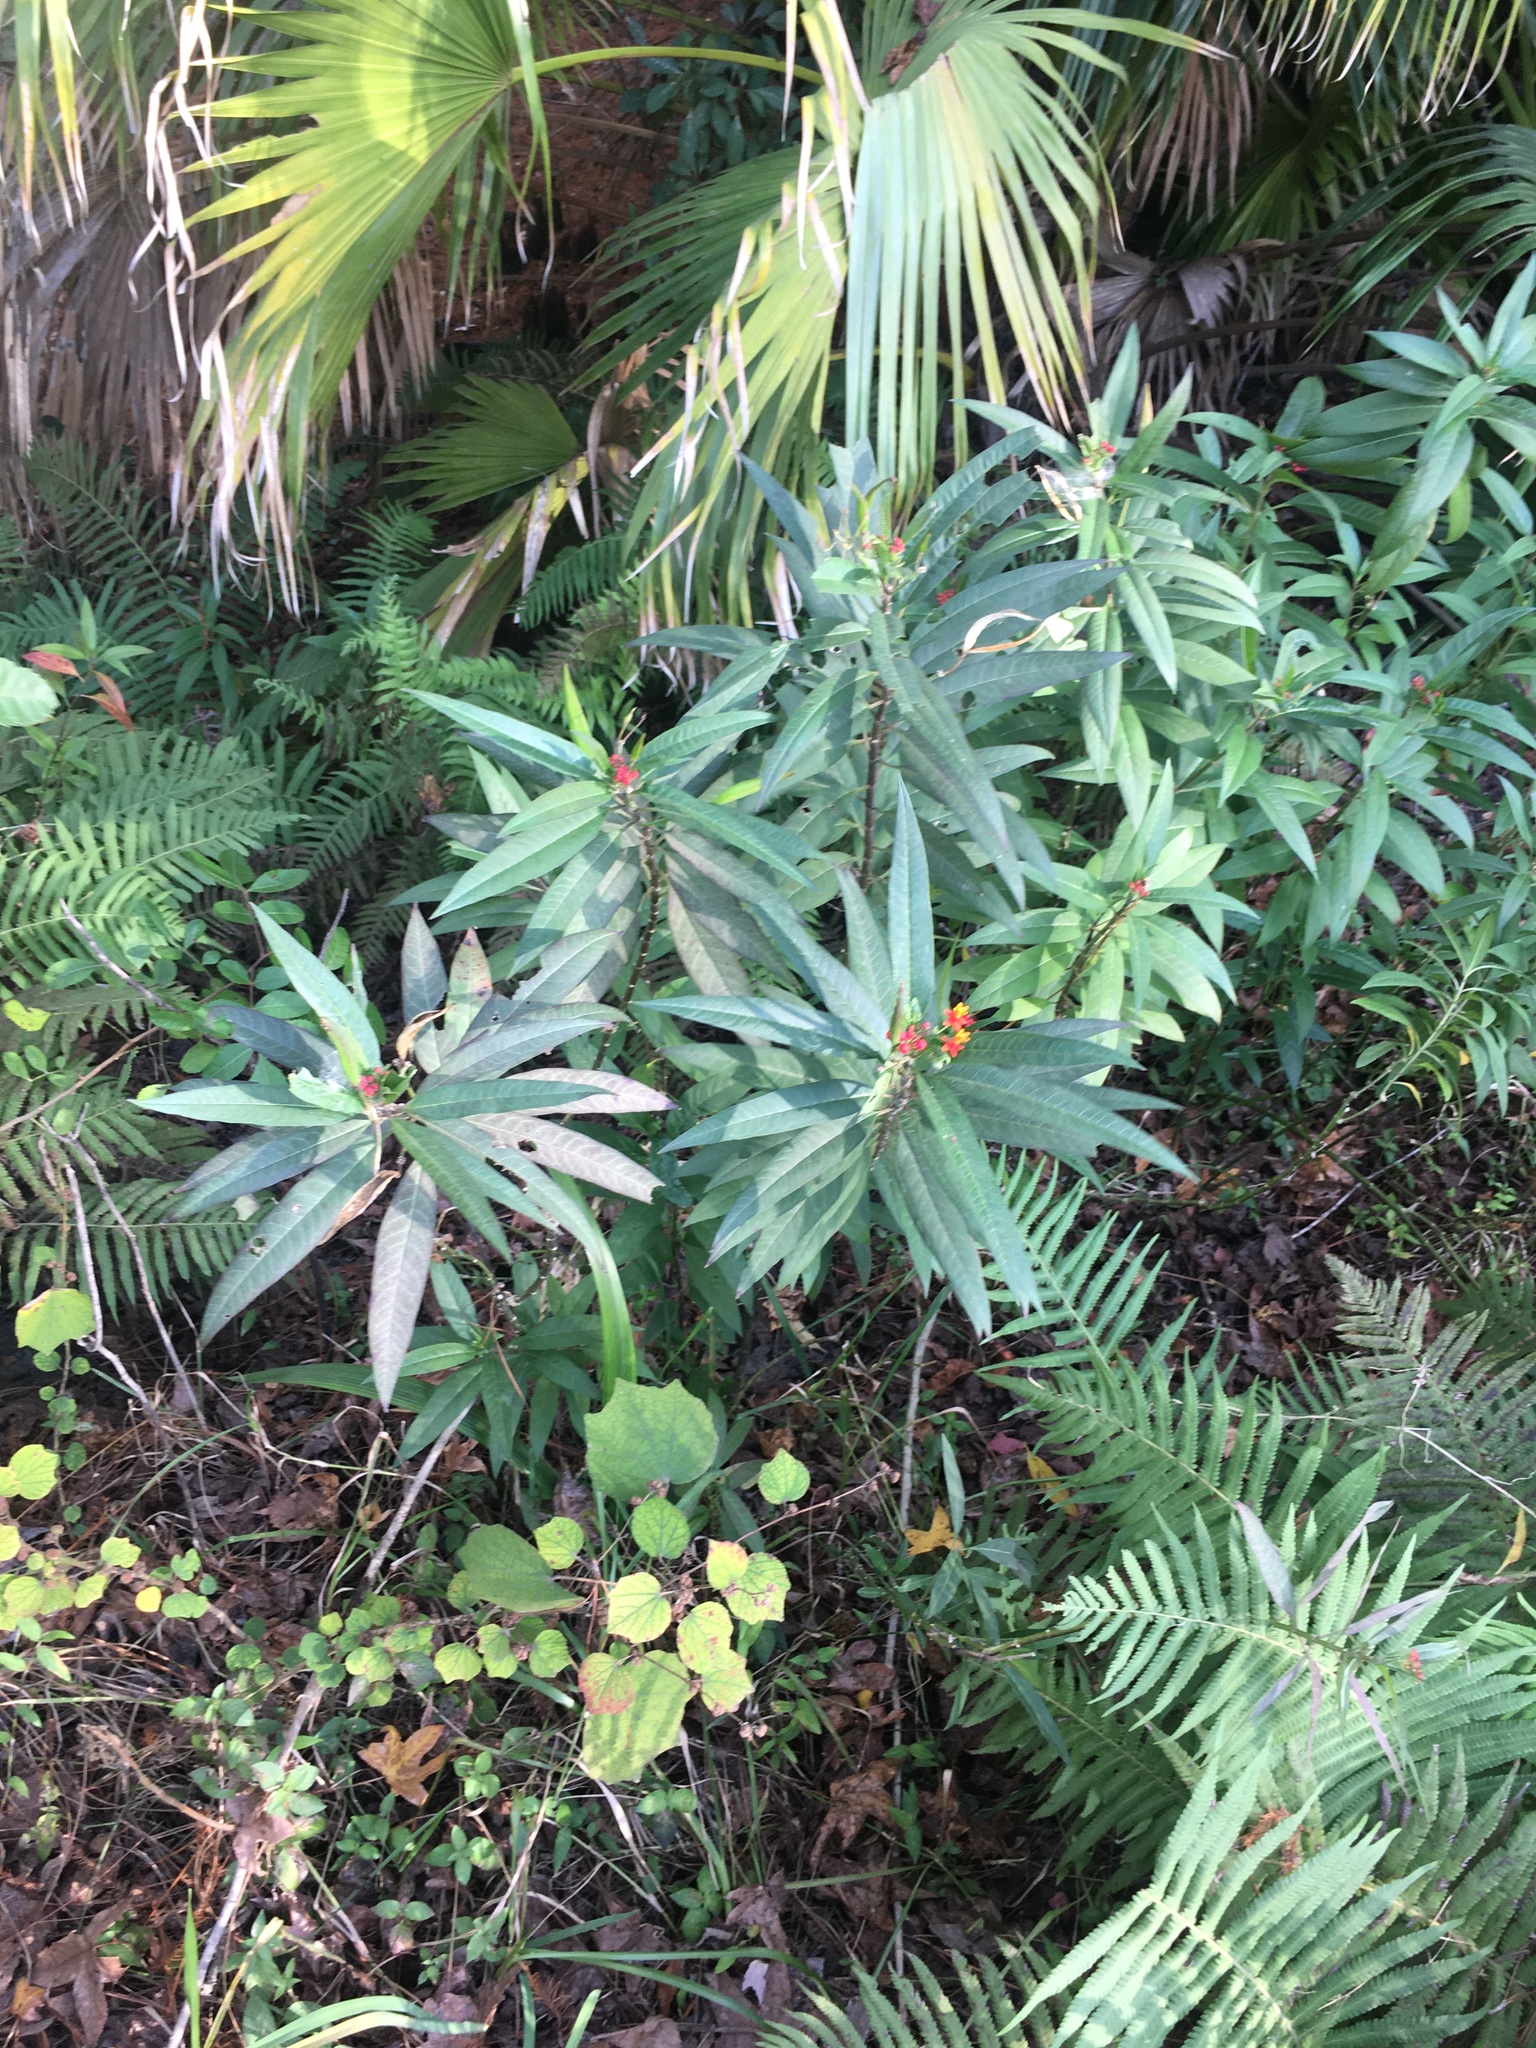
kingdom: Plantae
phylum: Tracheophyta
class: Magnoliopsida
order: Gentianales
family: Apocynaceae
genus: Asclepias
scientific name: Asclepias curassavica
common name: Bloodflower
